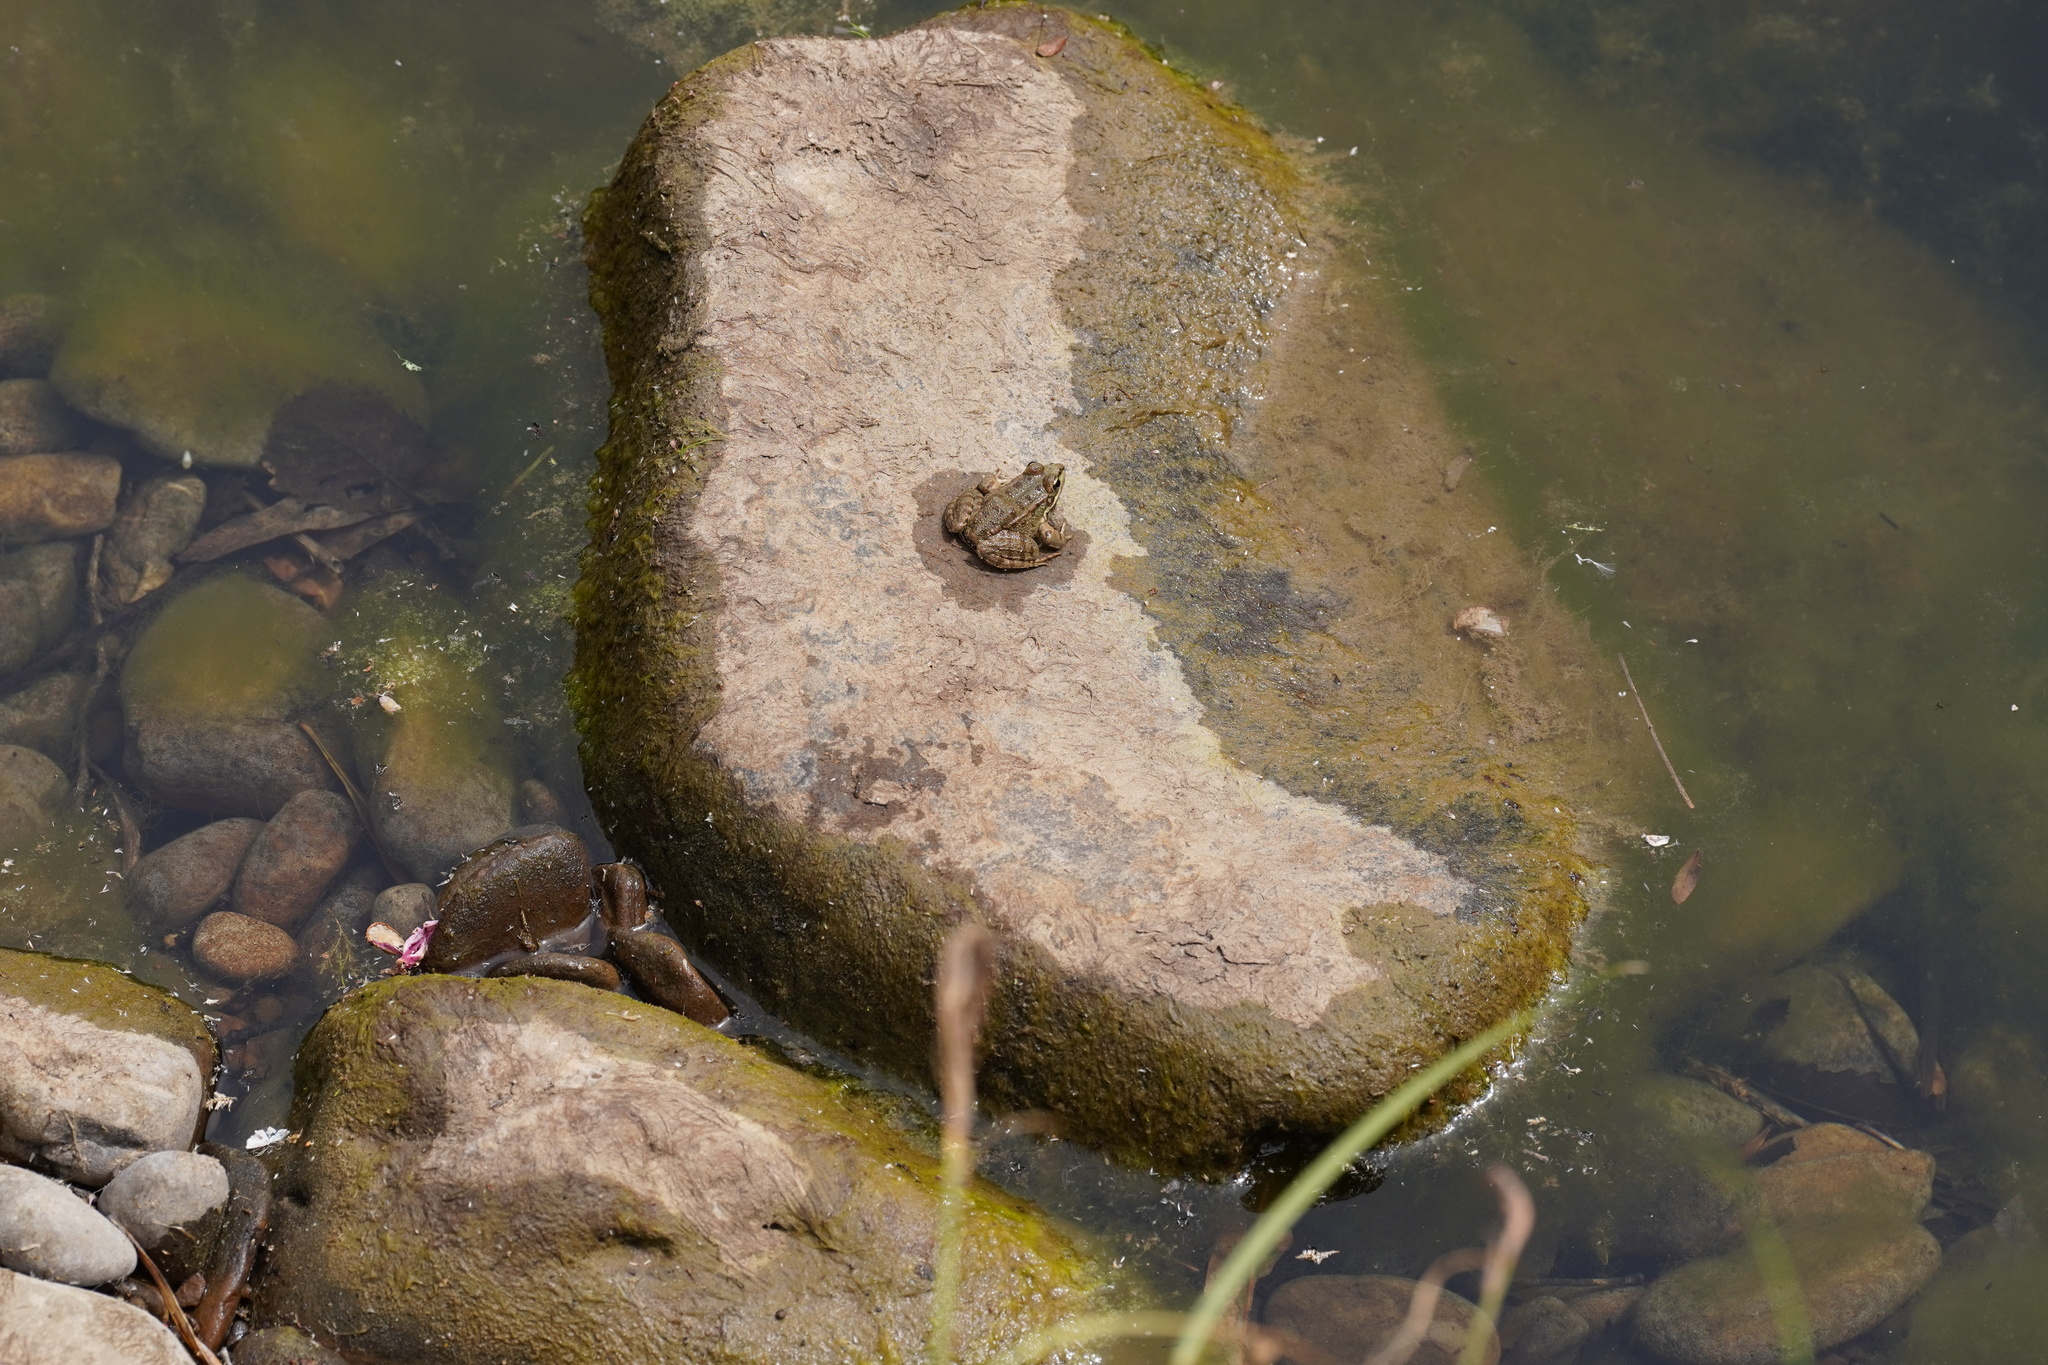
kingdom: Animalia
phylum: Chordata
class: Amphibia
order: Anura
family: Ranidae
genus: Pelophylax
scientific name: Pelophylax perezi
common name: Perez's frog
